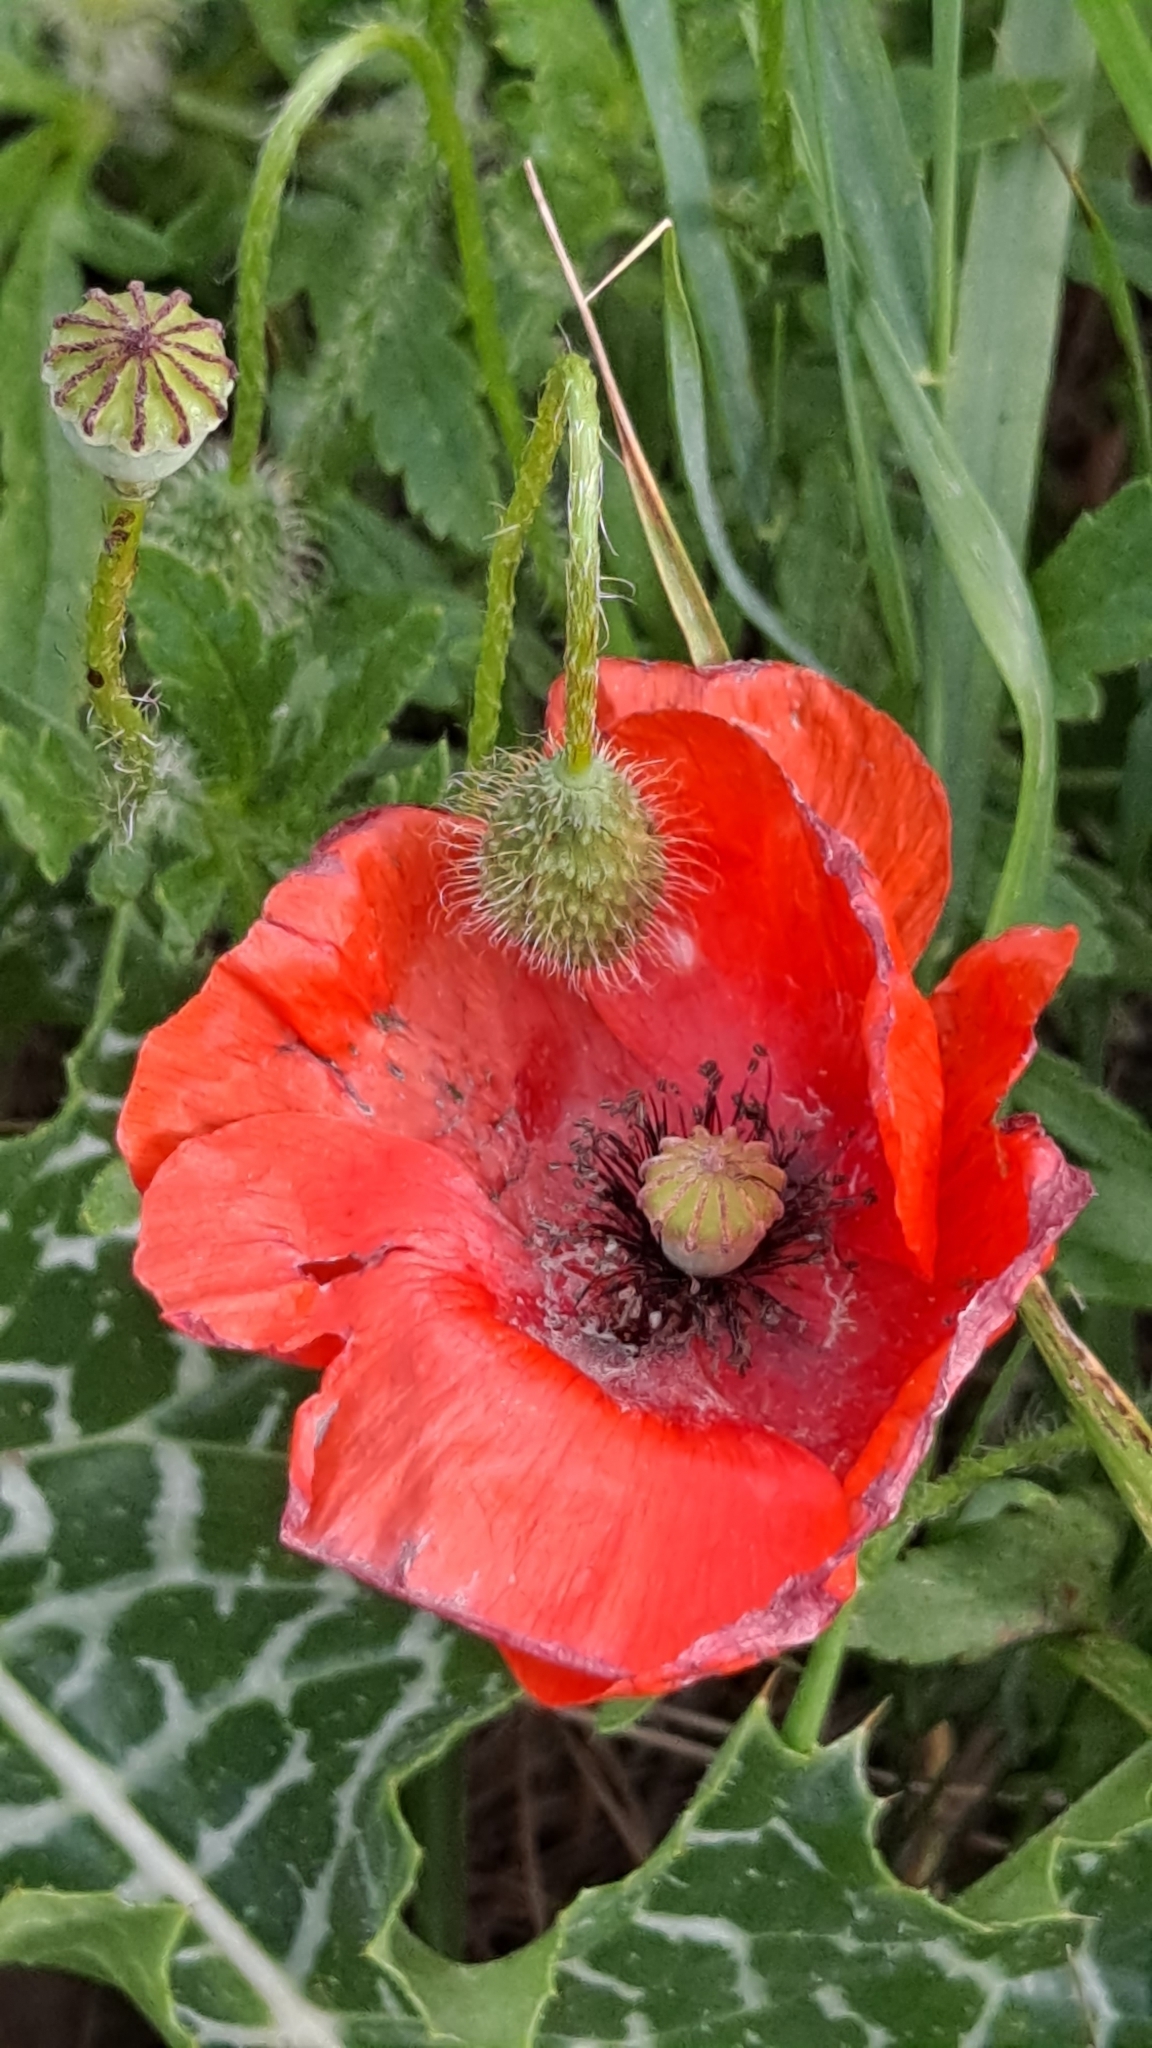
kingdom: Plantae
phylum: Tracheophyta
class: Magnoliopsida
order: Ranunculales
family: Papaveraceae
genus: Papaver
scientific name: Papaver rhoeas
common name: Corn poppy
